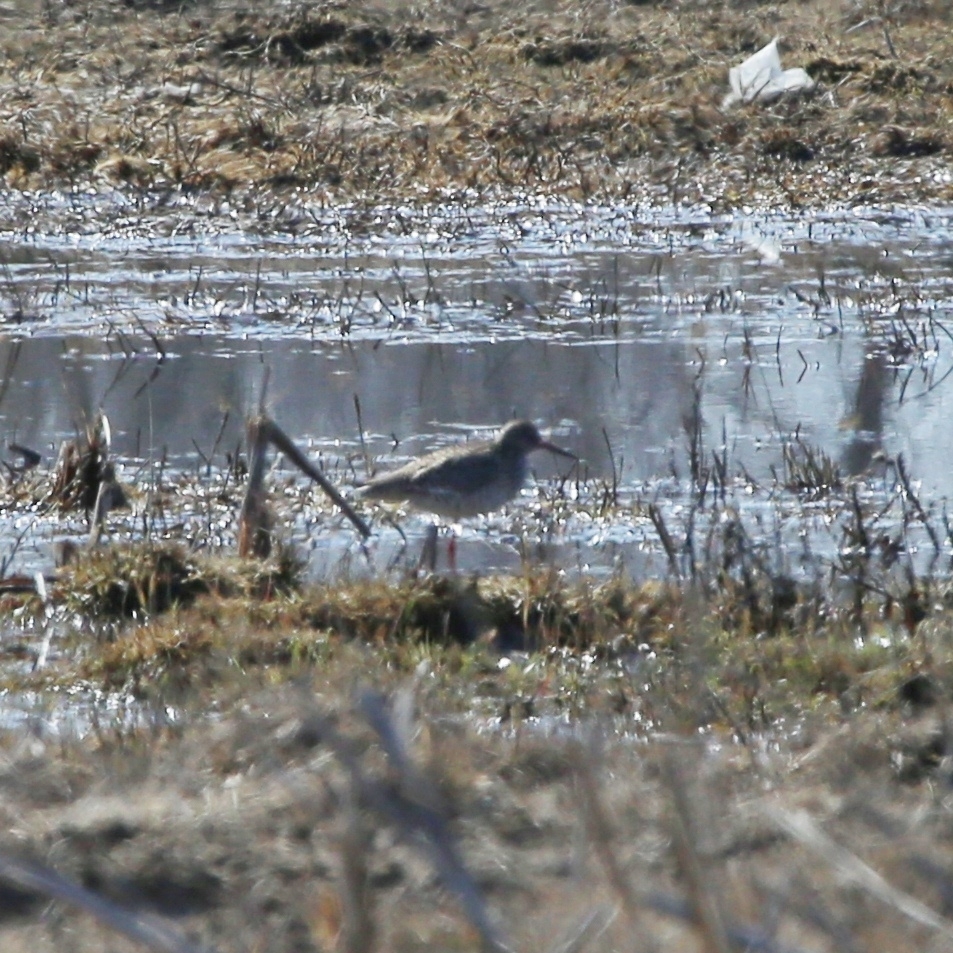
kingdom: Animalia
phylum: Chordata
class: Aves
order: Charadriiformes
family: Scolopacidae
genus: Tringa
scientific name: Tringa totanus
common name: Common redshank
